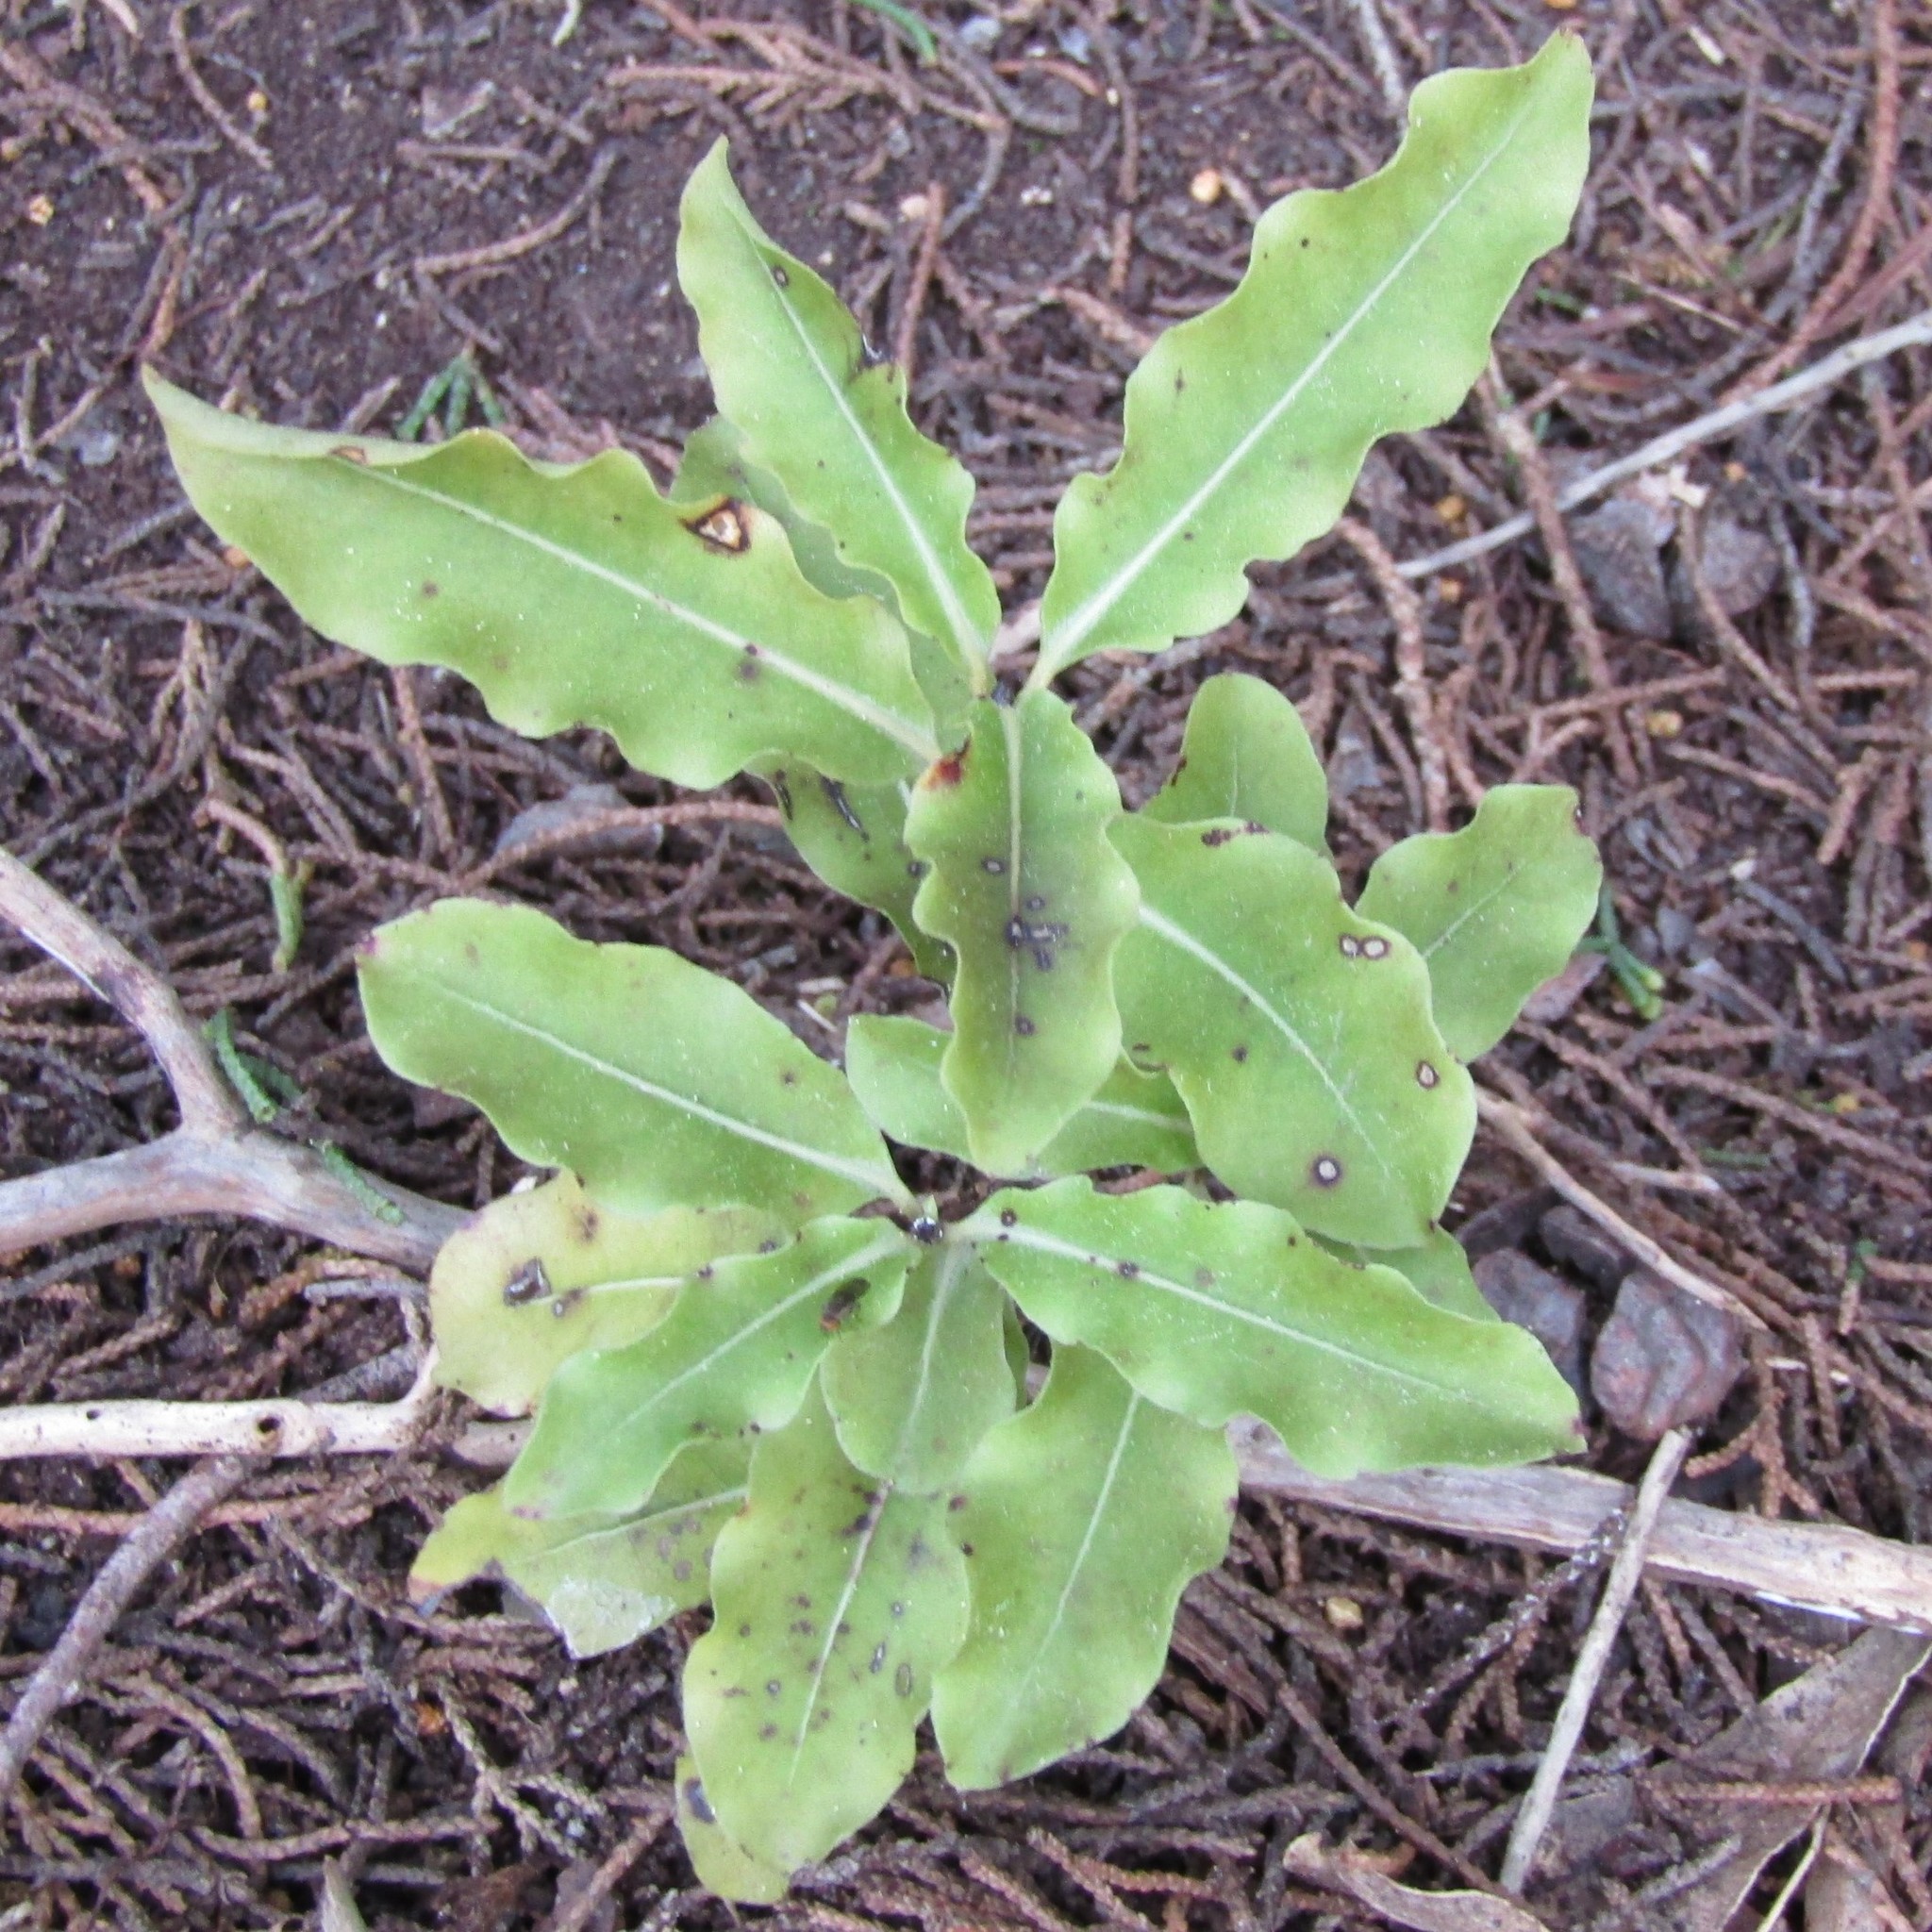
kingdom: Plantae
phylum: Tracheophyta
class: Magnoliopsida
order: Apiales
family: Pittosporaceae
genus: Pittosporum
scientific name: Pittosporum eugenioides
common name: Lemonwood
